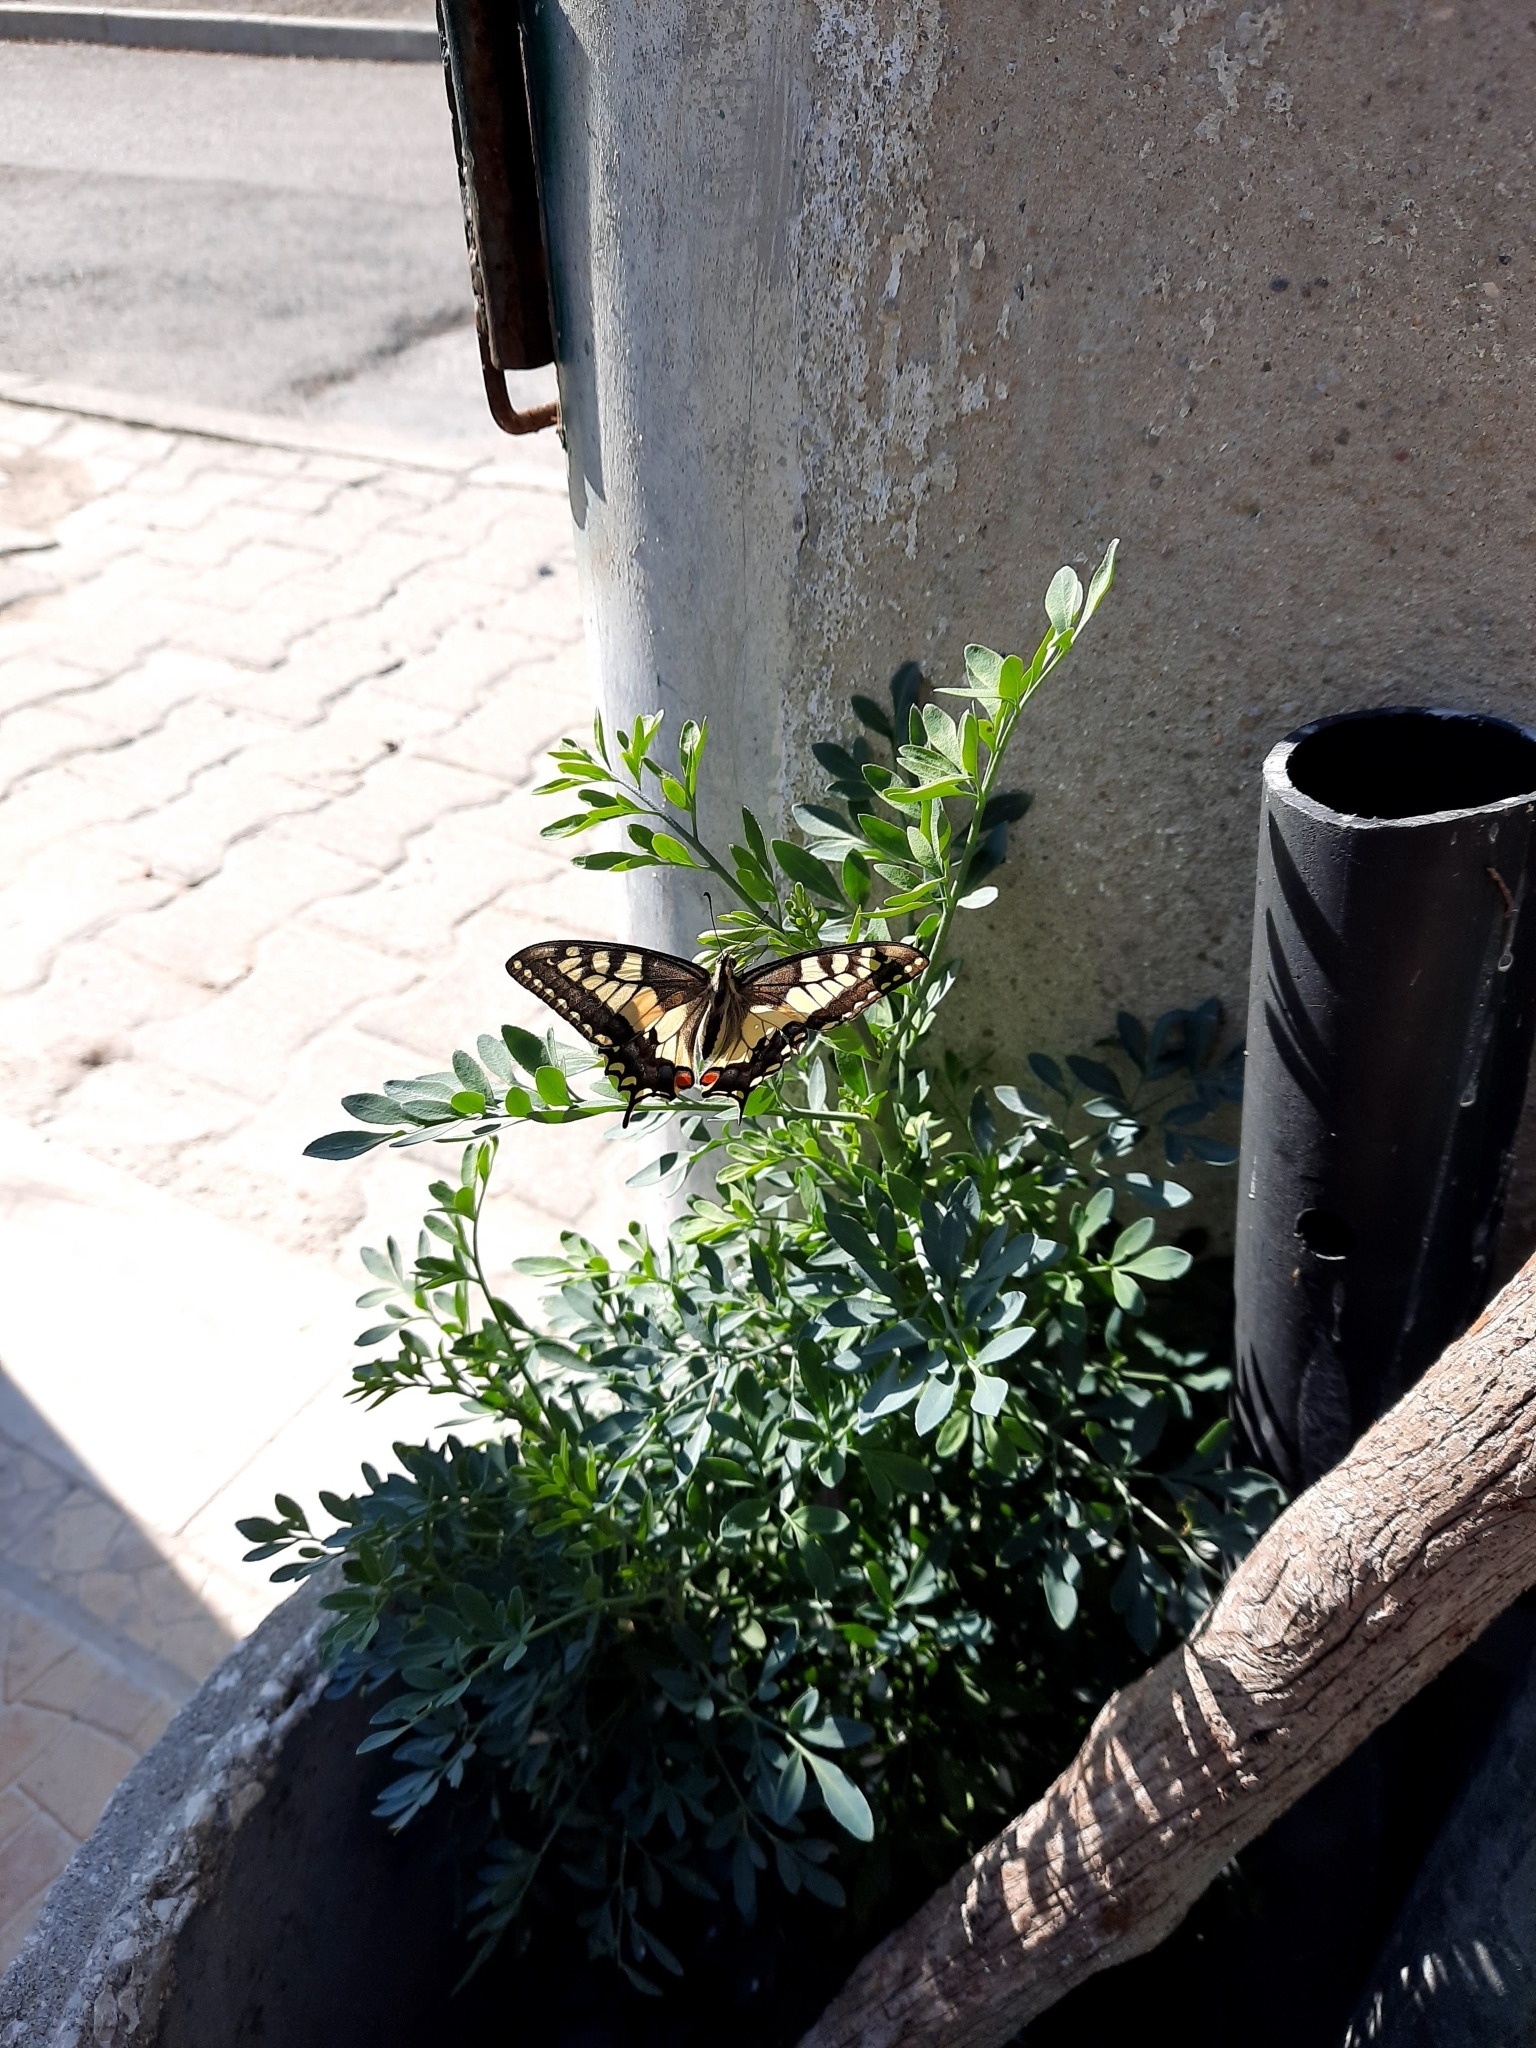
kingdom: Animalia
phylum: Arthropoda
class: Insecta
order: Lepidoptera
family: Papilionidae
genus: Papilio
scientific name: Papilio machaon
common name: Swallowtail
